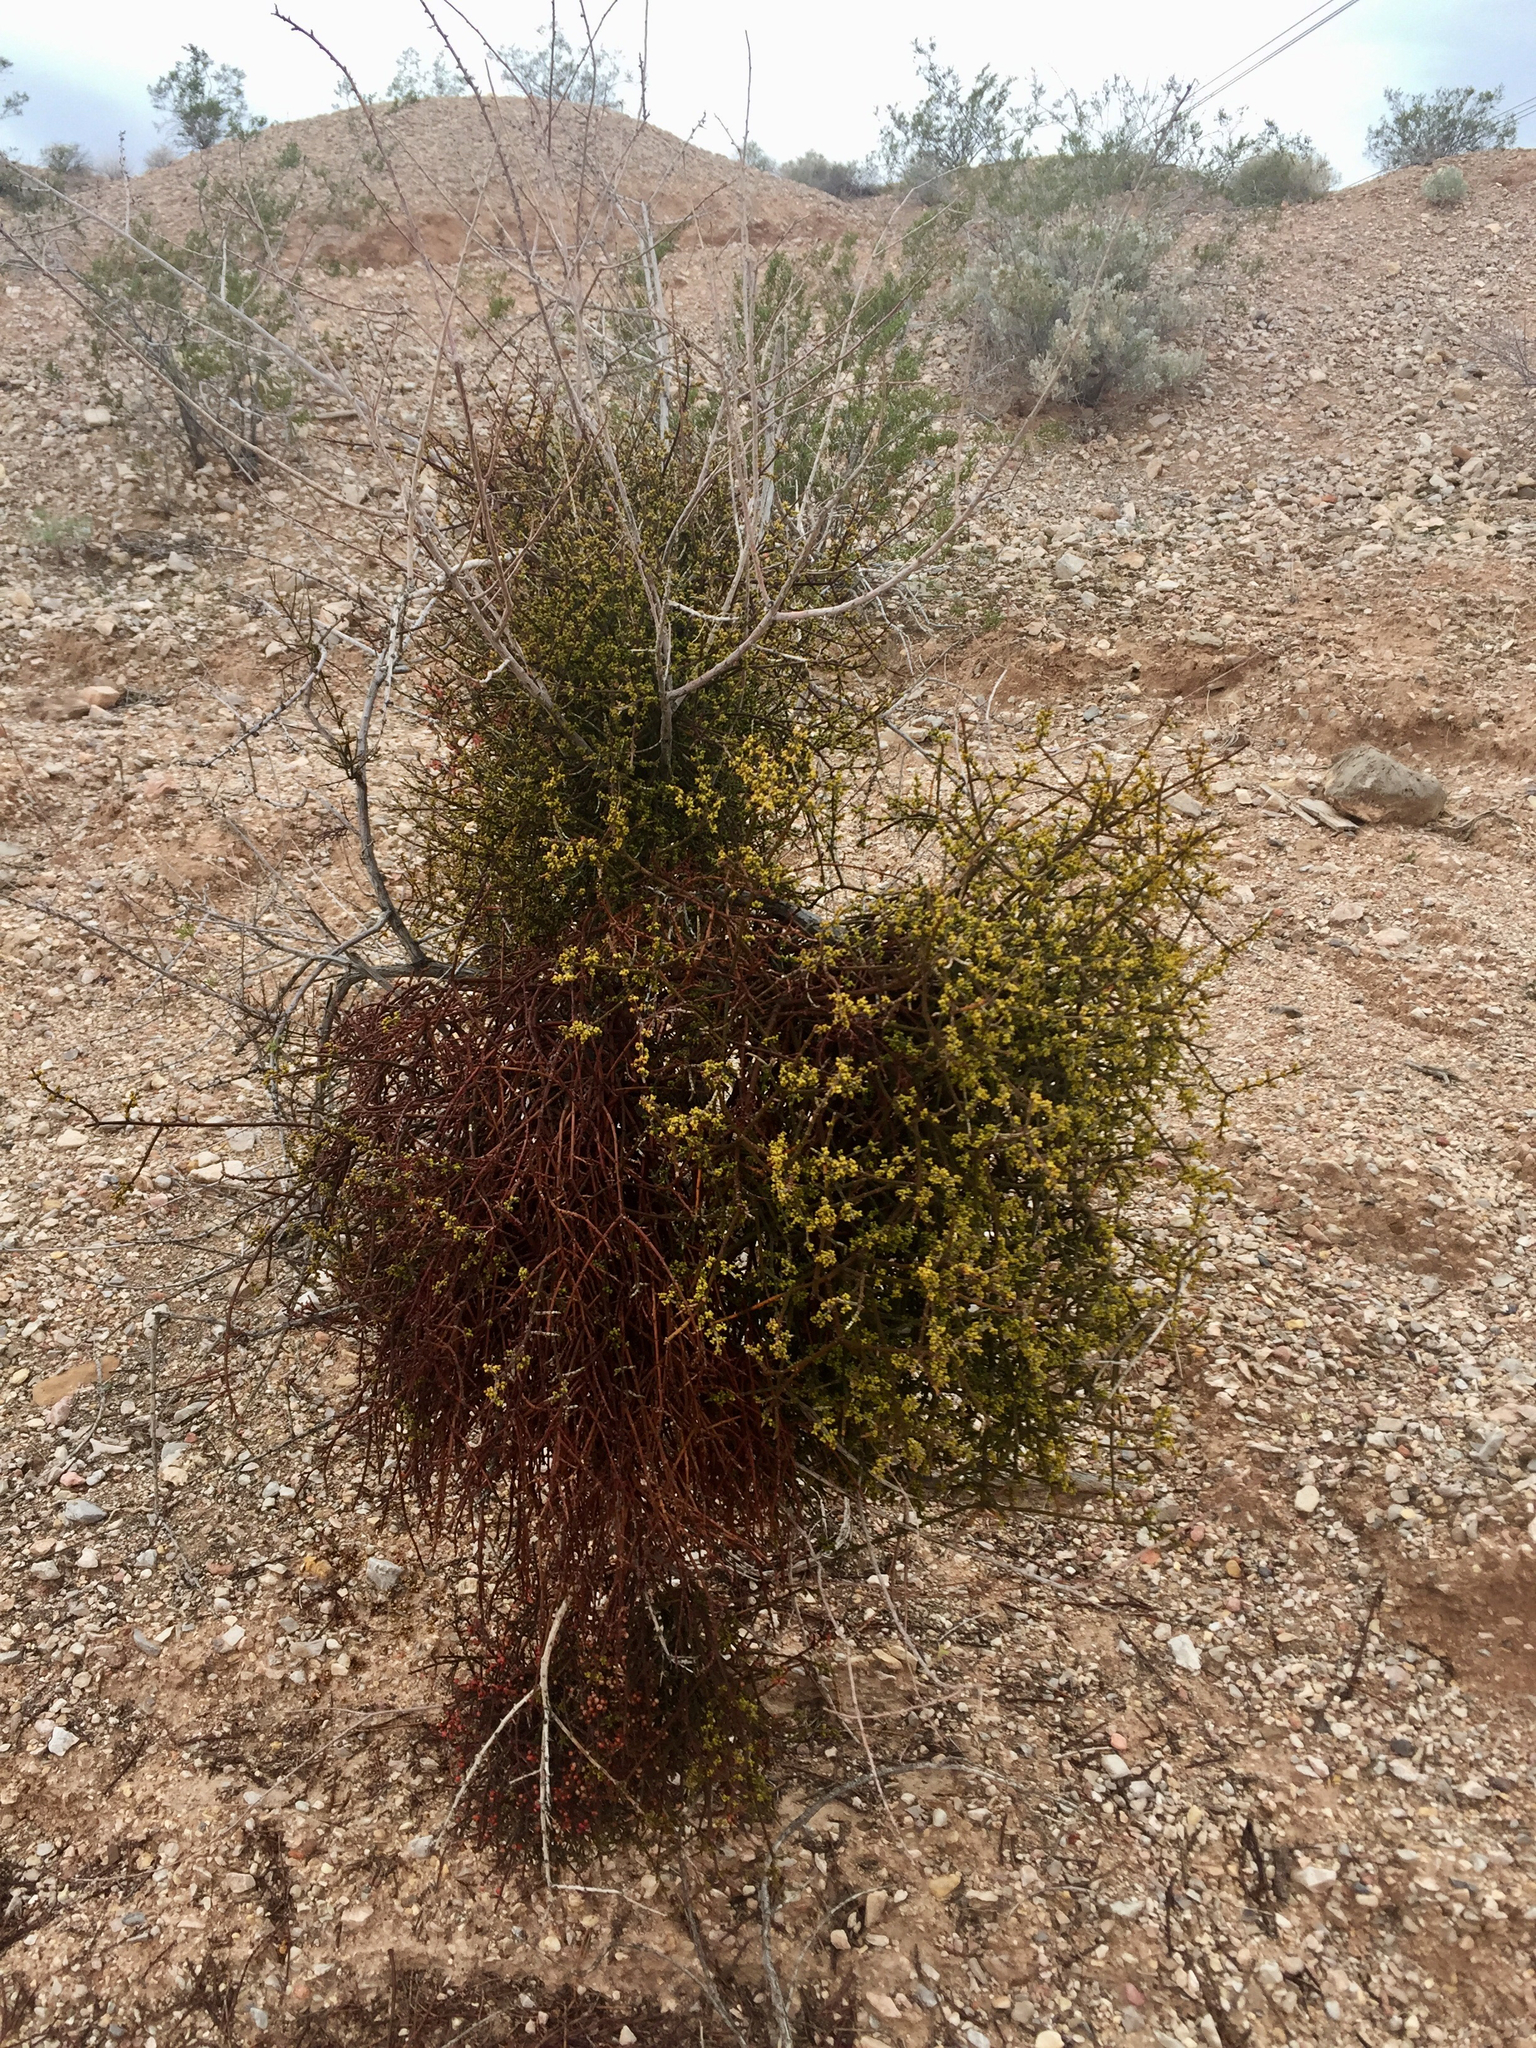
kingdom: Plantae
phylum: Tracheophyta
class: Magnoliopsida
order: Santalales
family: Viscaceae
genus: Phoradendron
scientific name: Phoradendron californicum
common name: Acacia mistletoe
